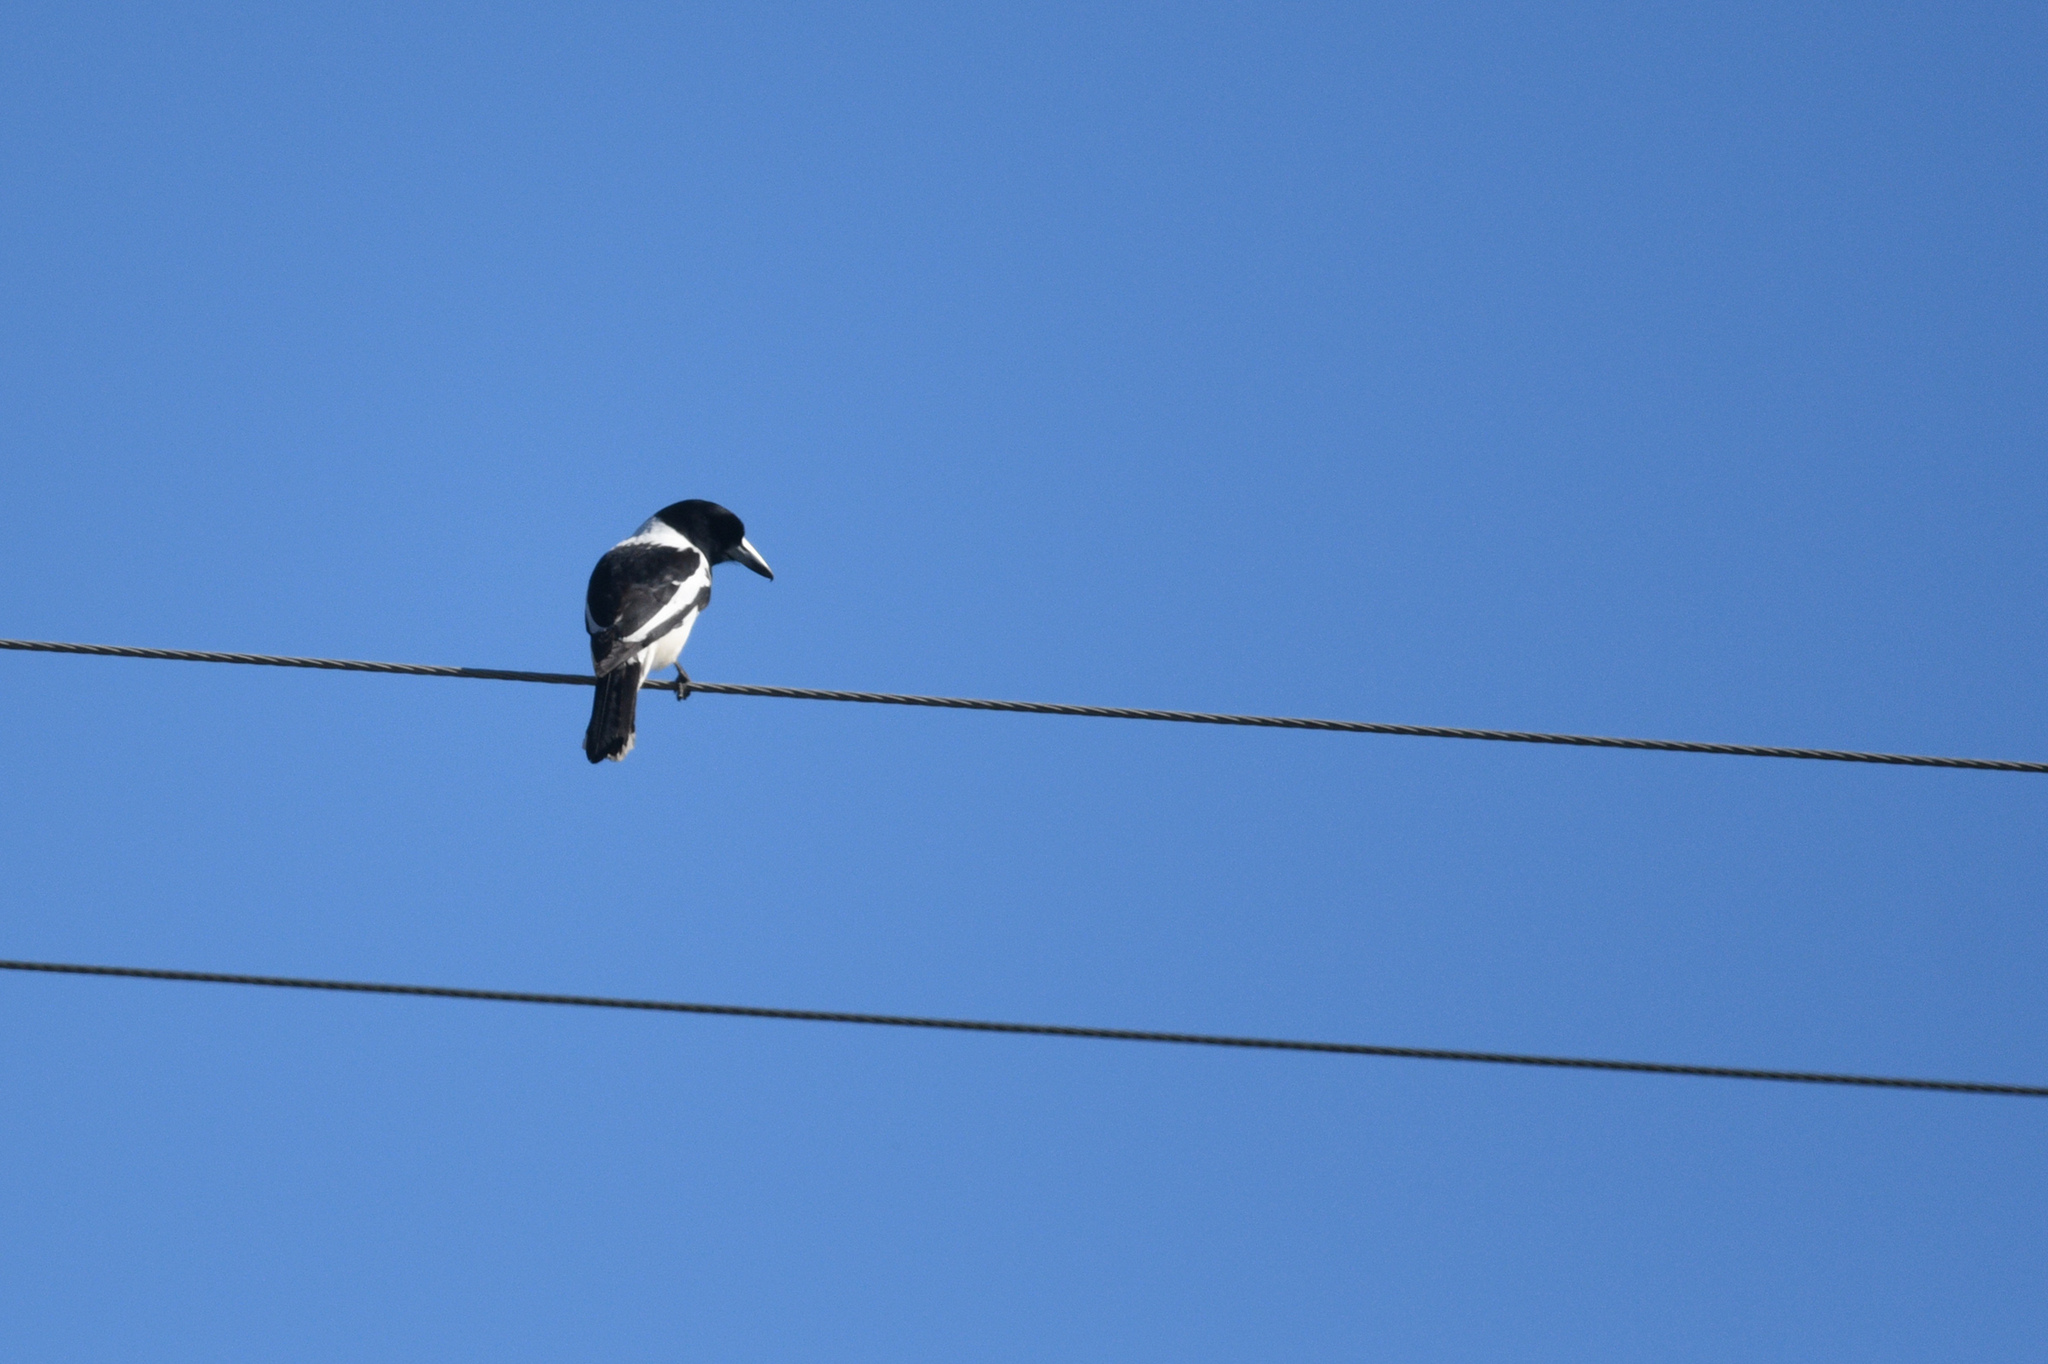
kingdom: Animalia
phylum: Chordata
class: Aves
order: Passeriformes
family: Cracticidae
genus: Cracticus
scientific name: Cracticus nigrogularis
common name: Pied butcherbird
